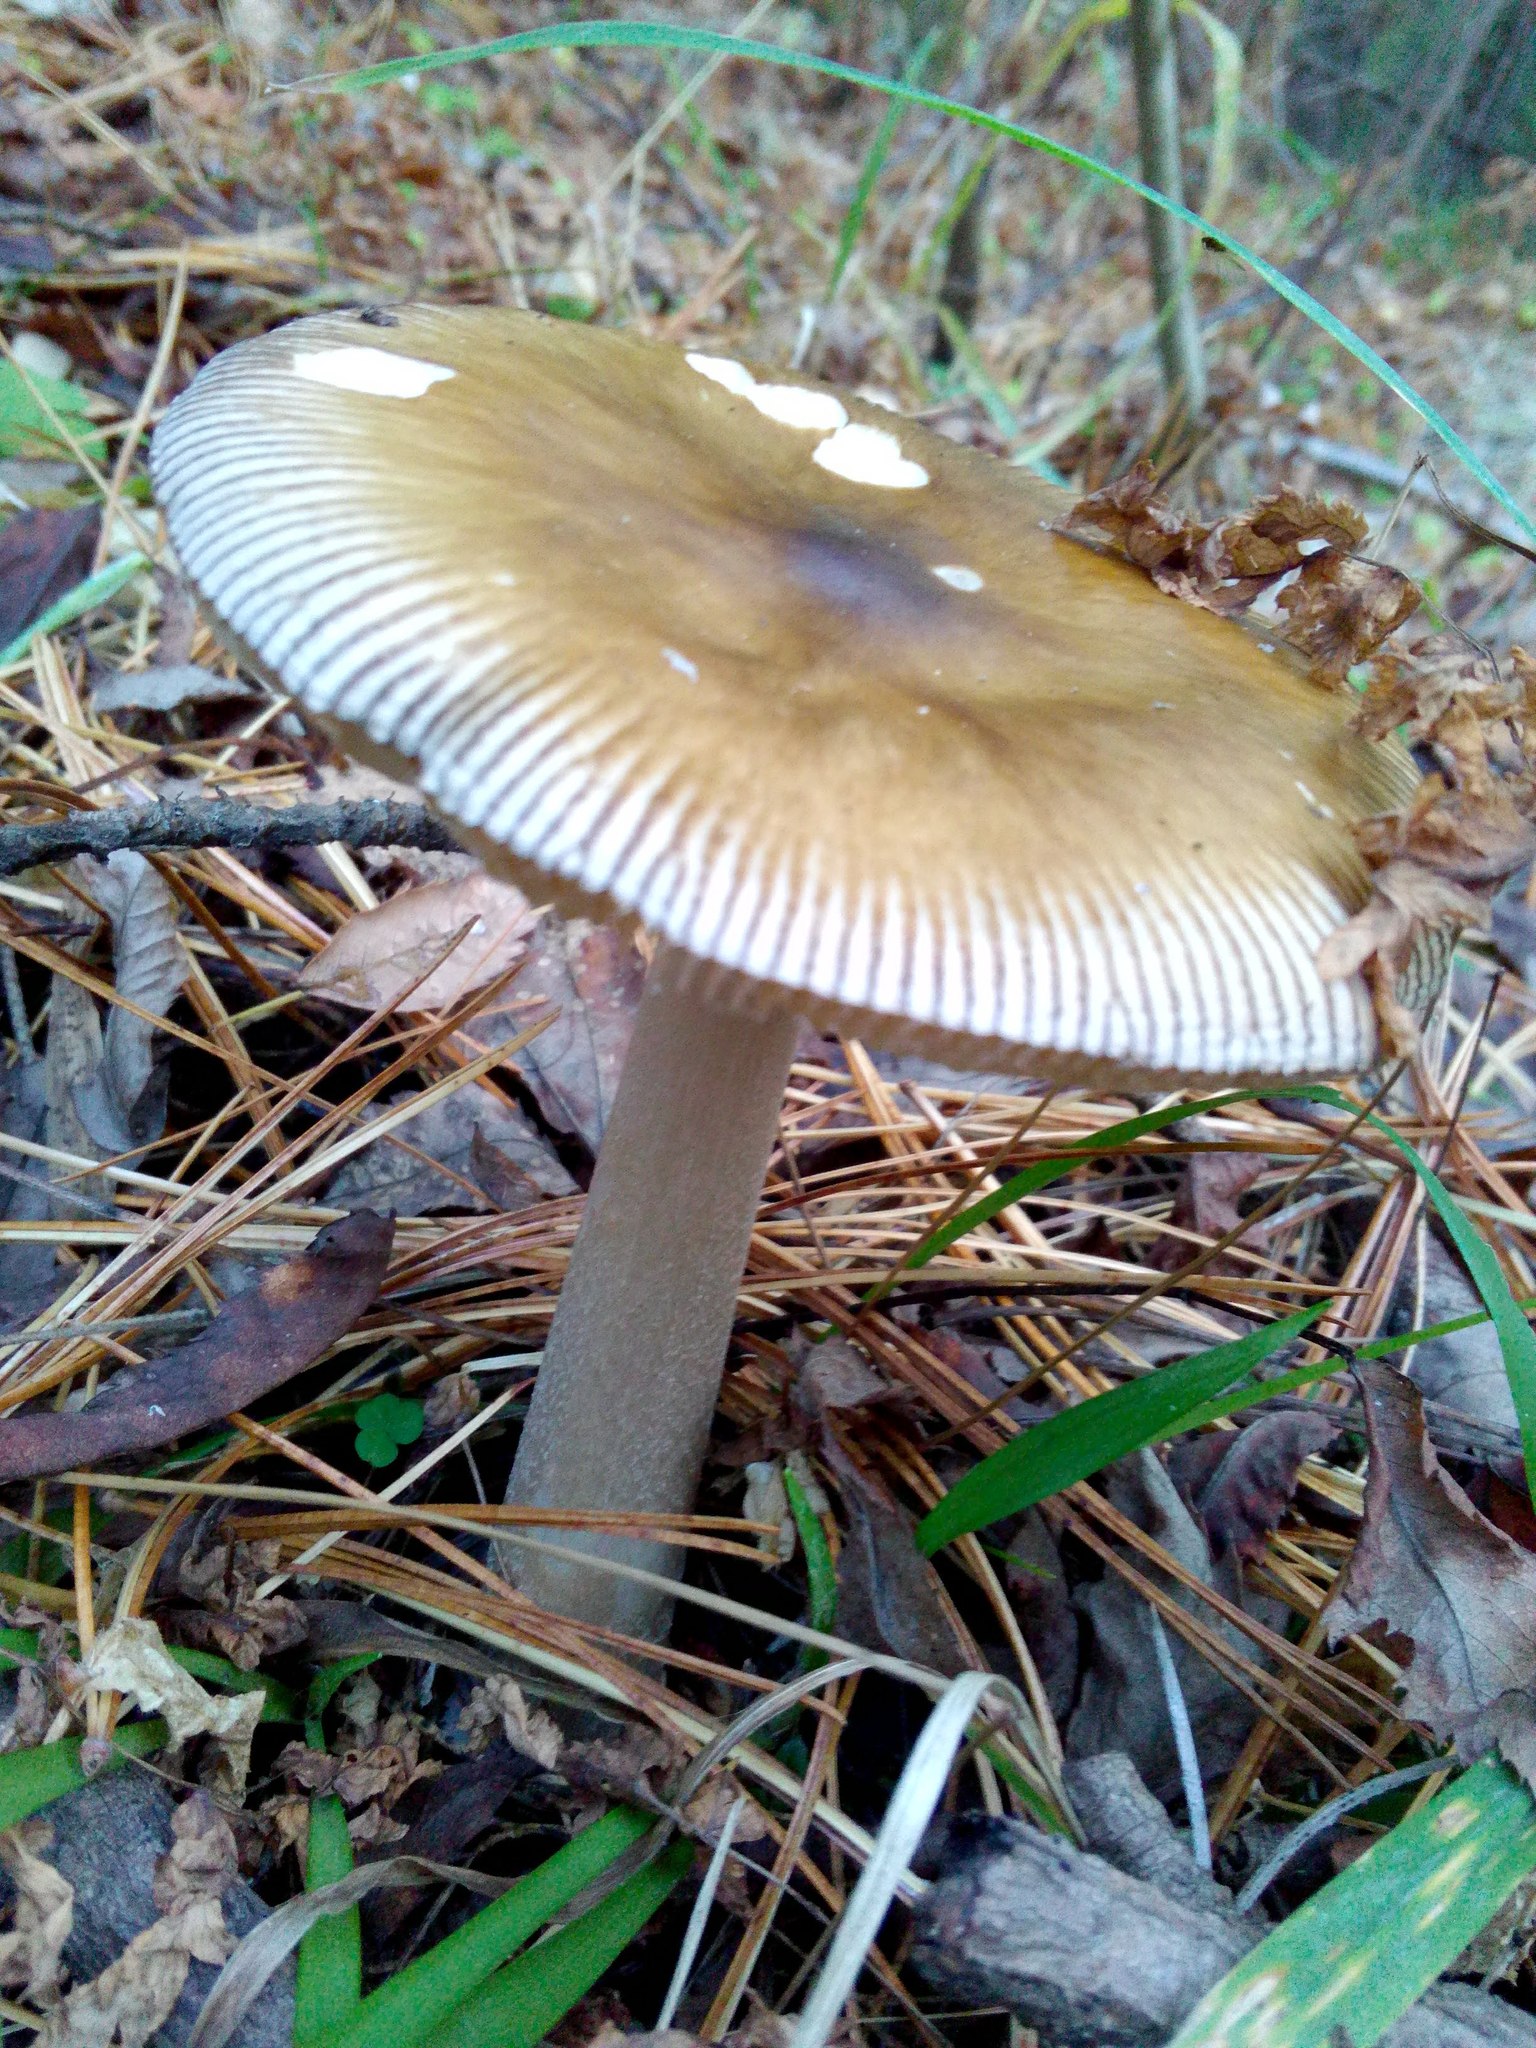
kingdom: Fungi
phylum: Basidiomycota
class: Agaricomycetes
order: Agaricales
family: Amanitaceae
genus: Amanita
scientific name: Amanita fulva
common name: Tawny grisette
